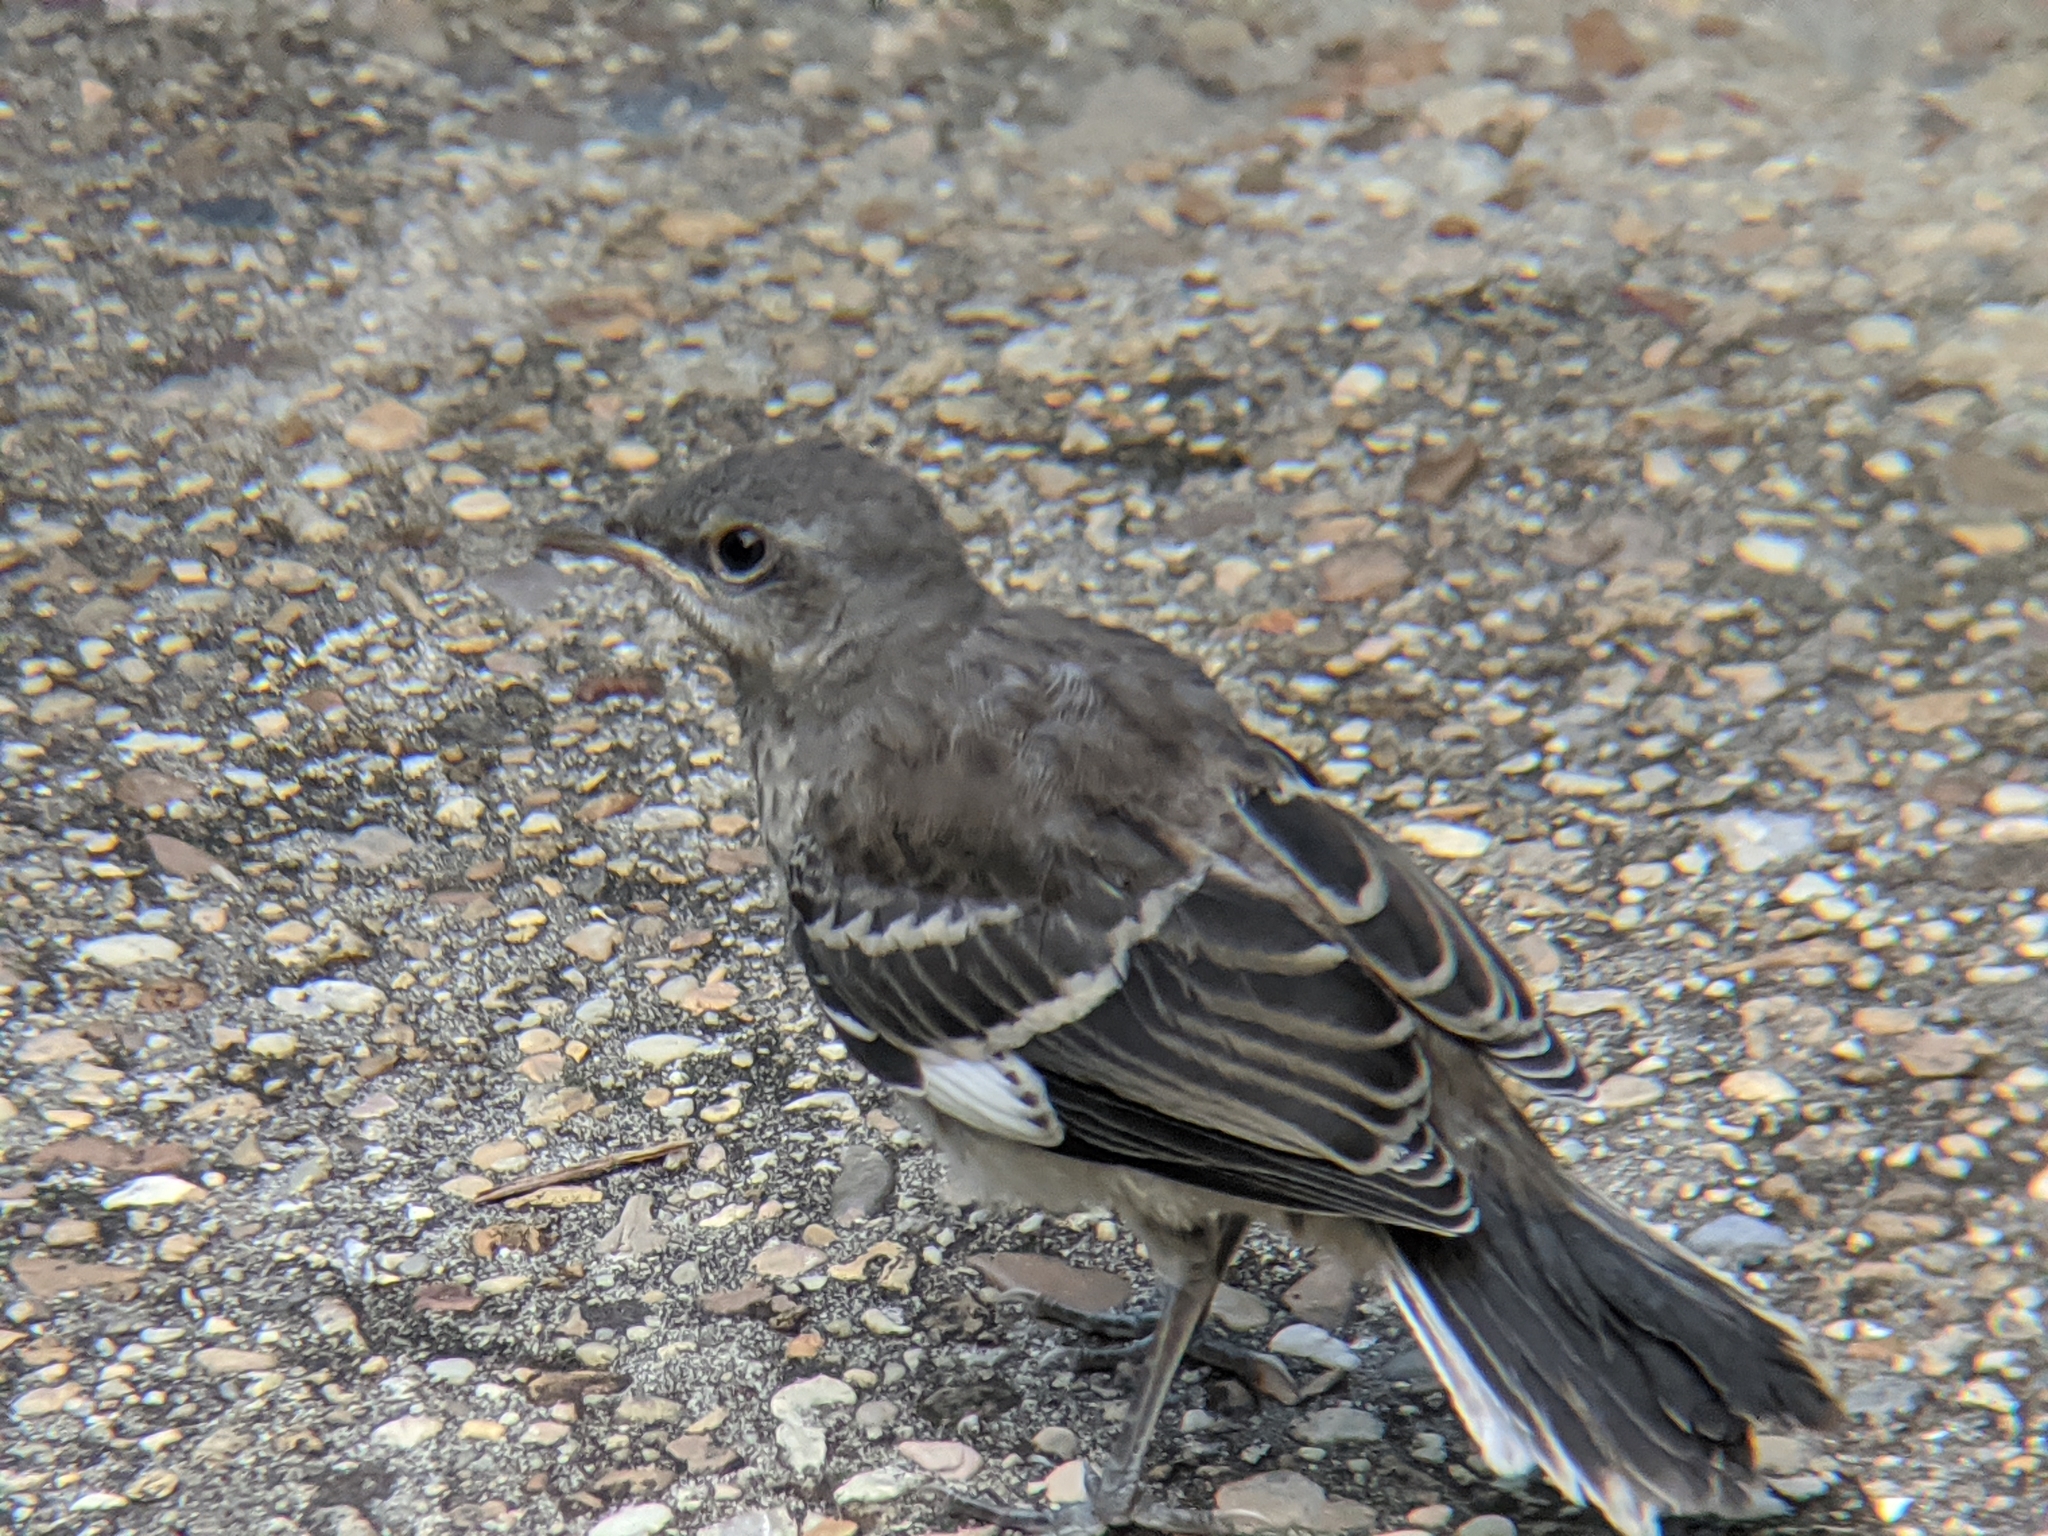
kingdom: Animalia
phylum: Chordata
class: Aves
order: Passeriformes
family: Mimidae
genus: Mimus
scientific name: Mimus polyglottos
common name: Northern mockingbird
